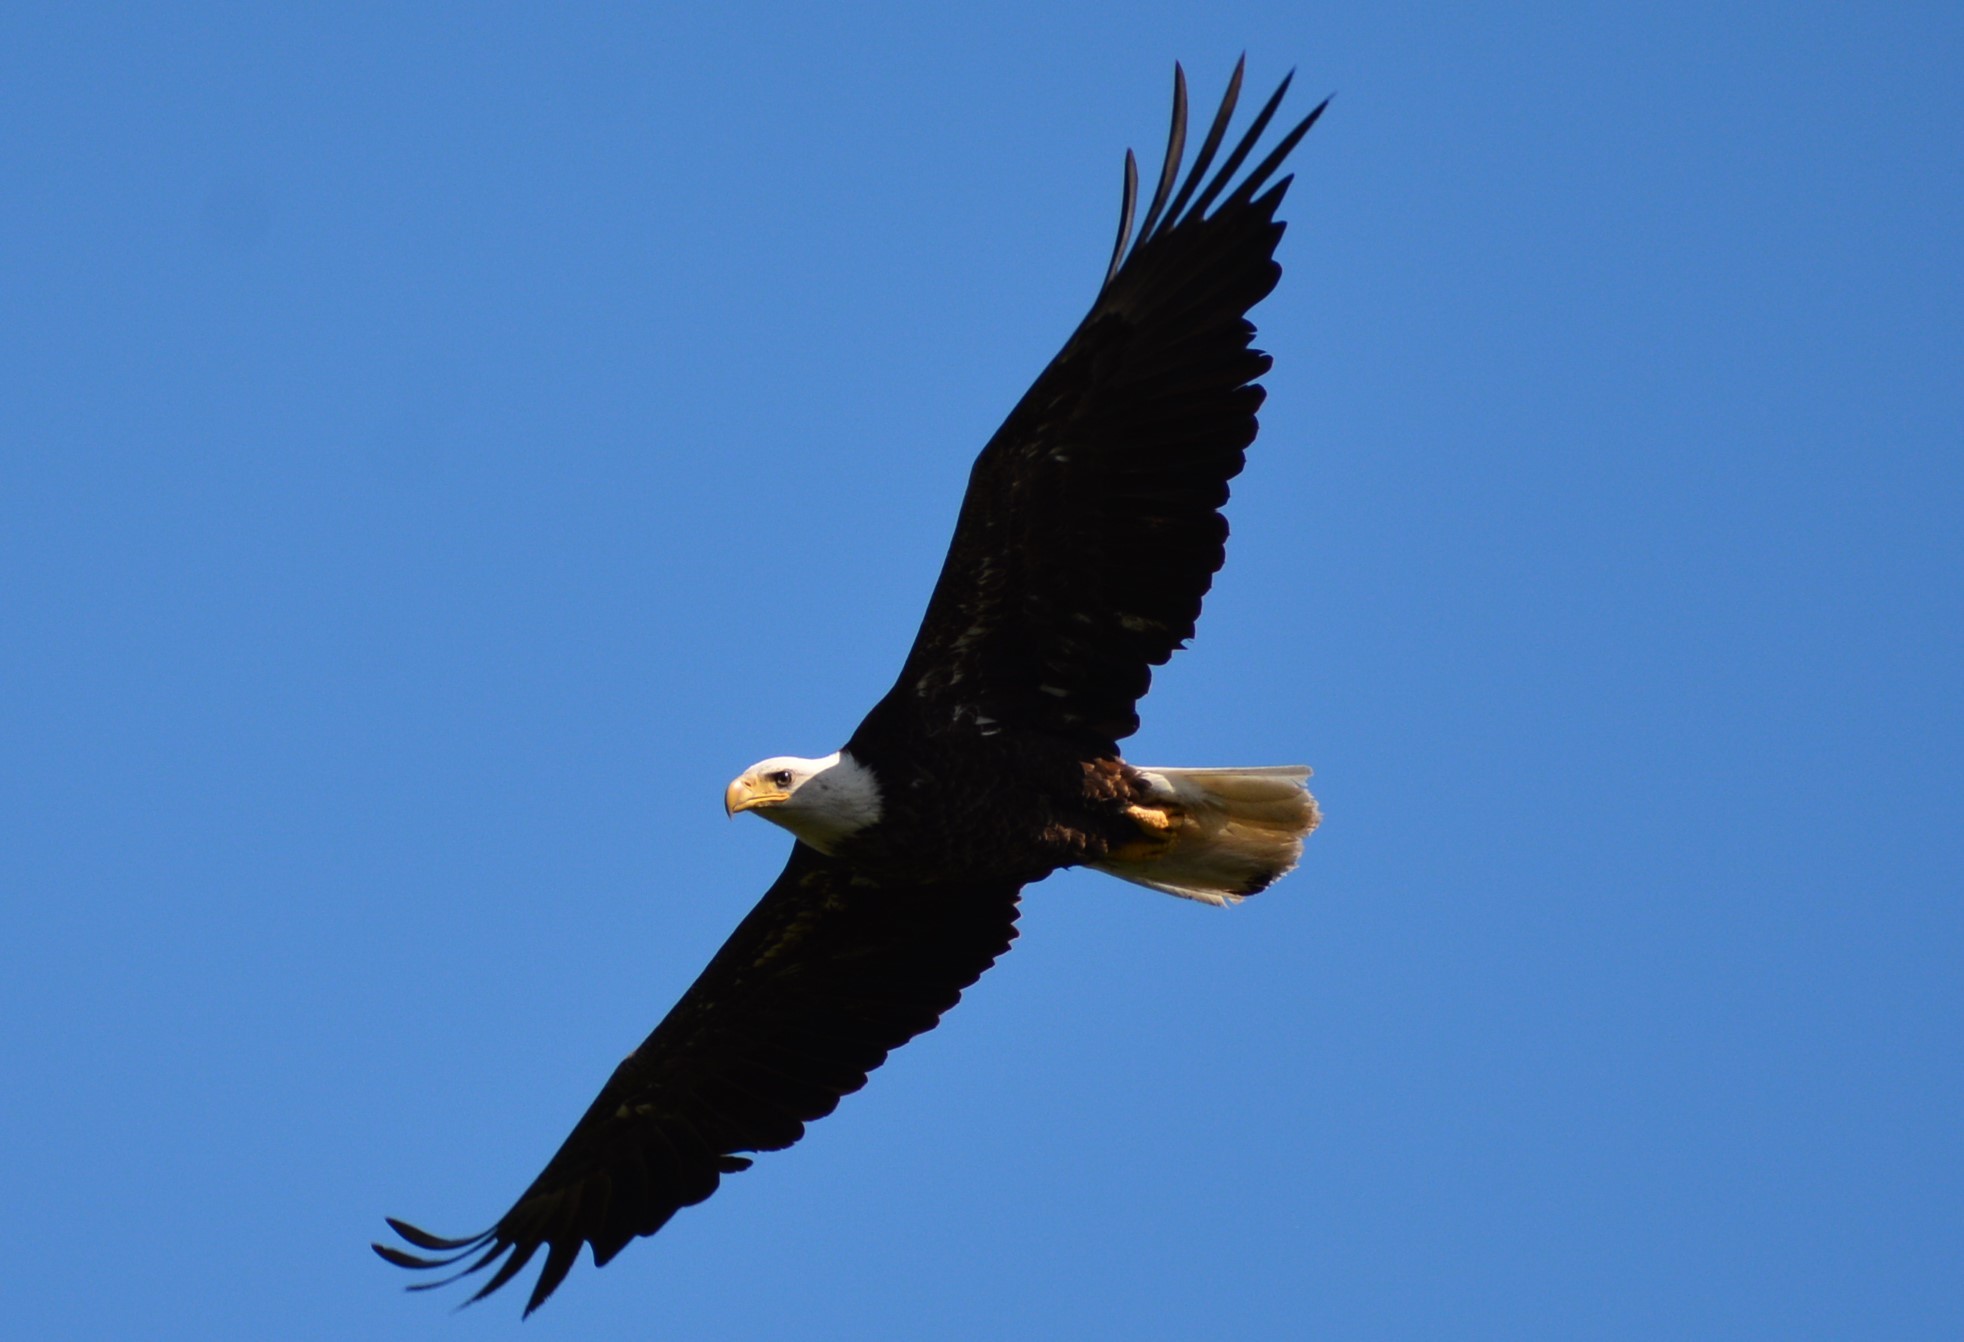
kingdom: Animalia
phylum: Chordata
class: Aves
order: Accipitriformes
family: Accipitridae
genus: Haliaeetus
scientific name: Haliaeetus leucocephalus
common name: Bald eagle
